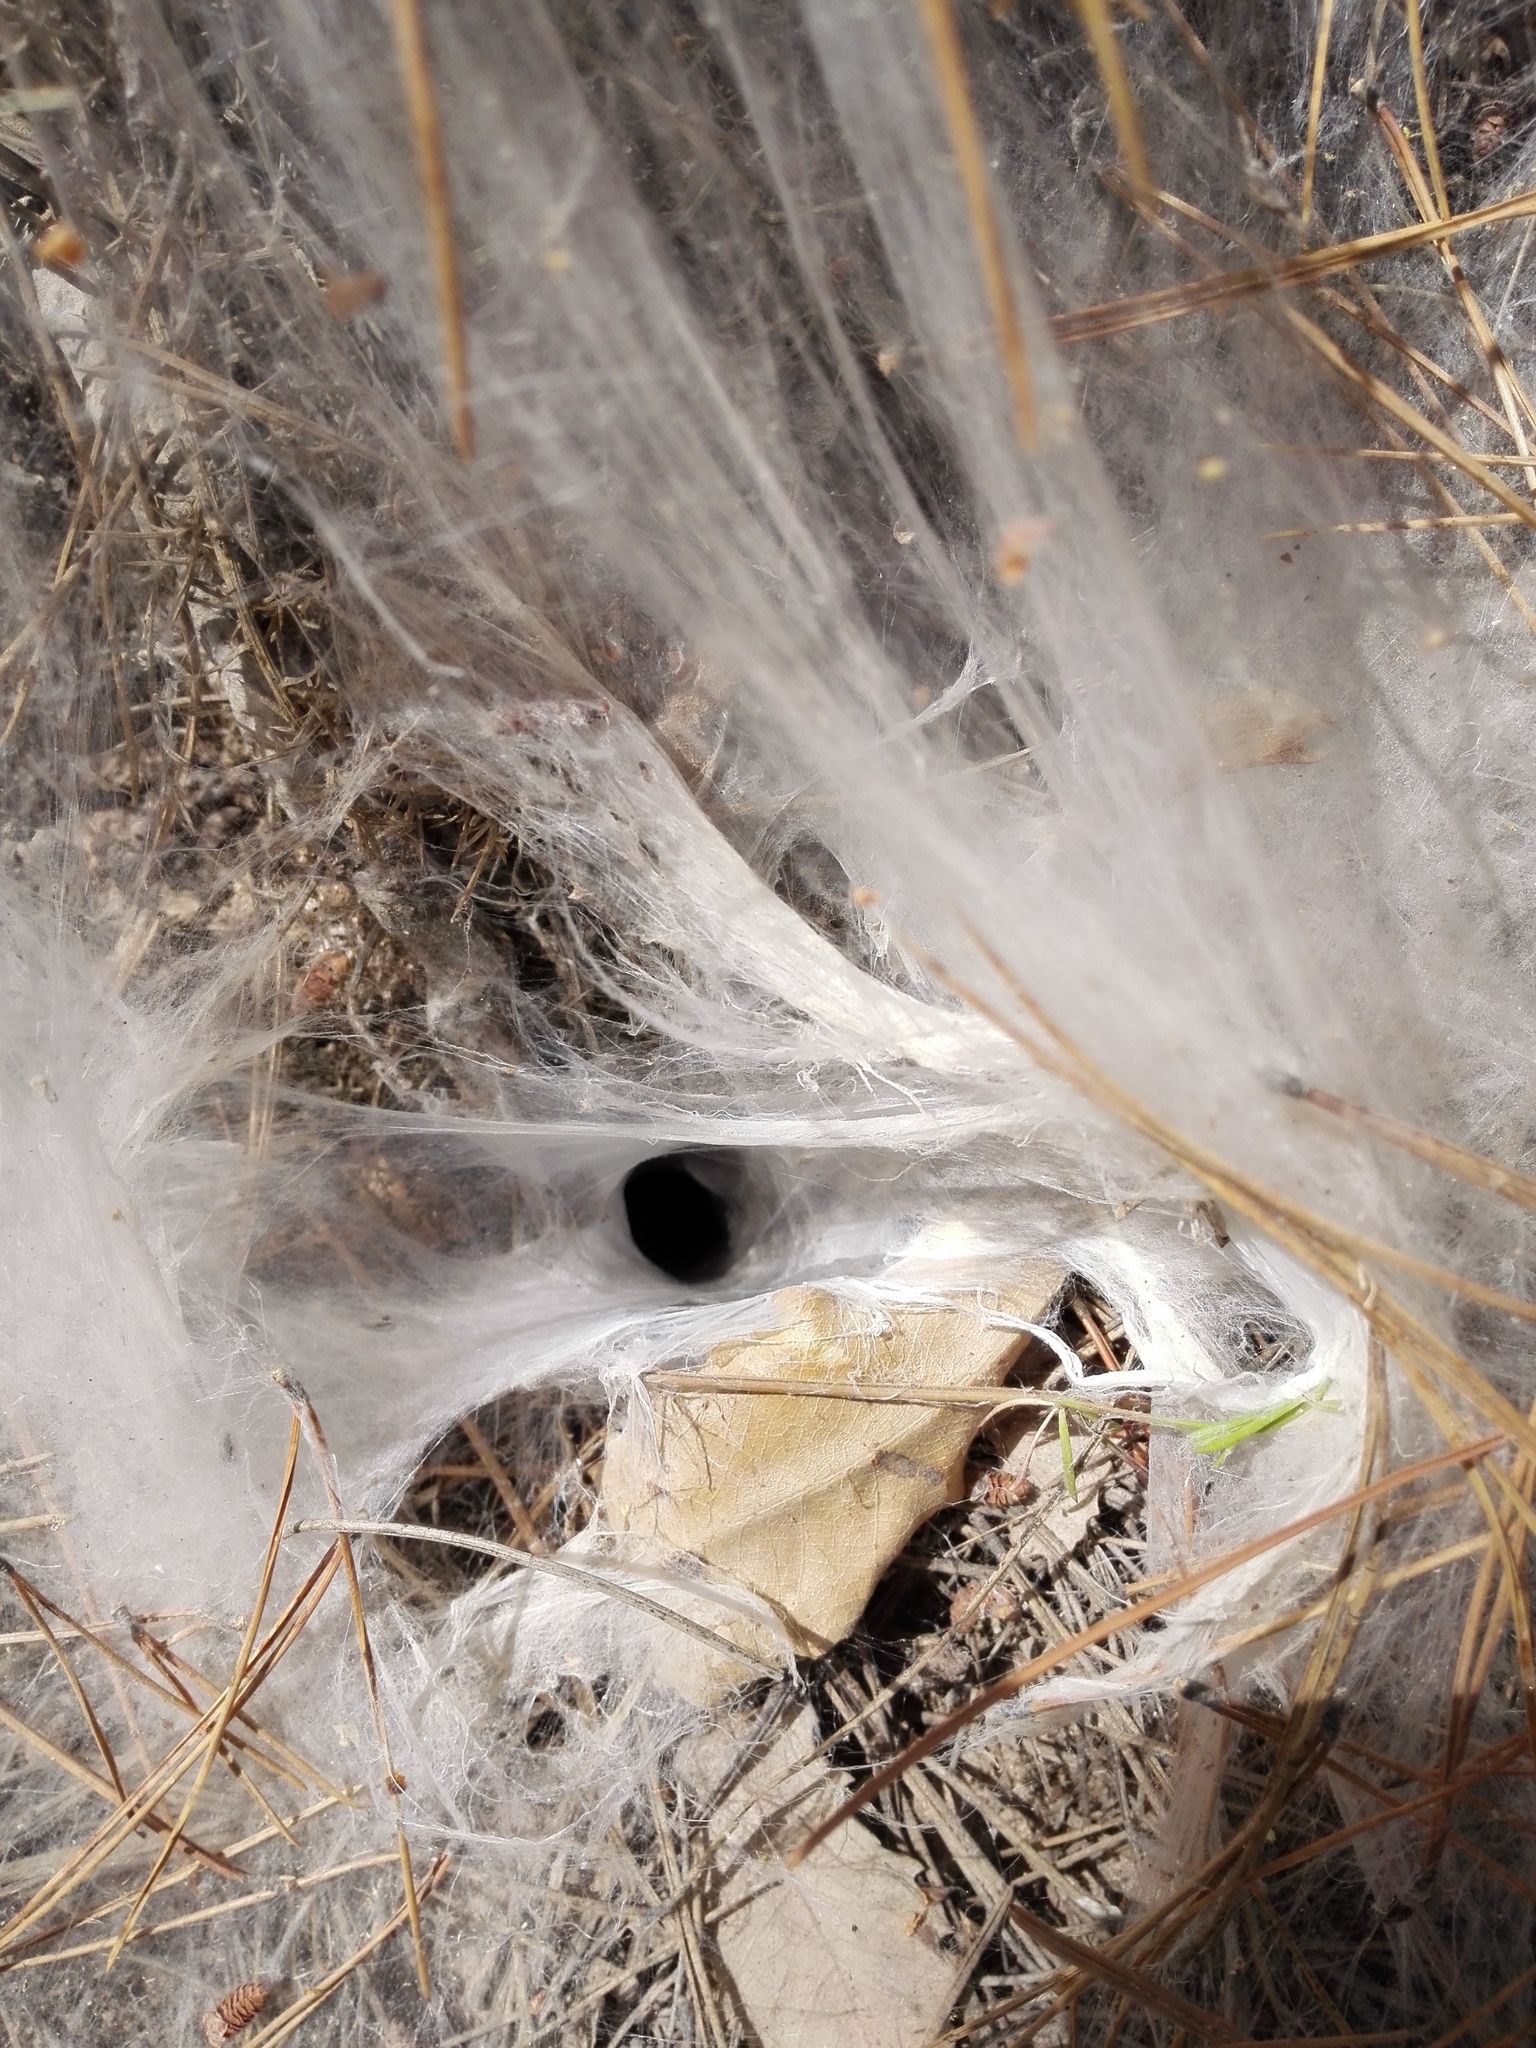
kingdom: Animalia
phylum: Arthropoda
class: Arachnida
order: Araneae
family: Macrothelidae
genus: Macrothele
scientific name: Macrothele calpeiana
